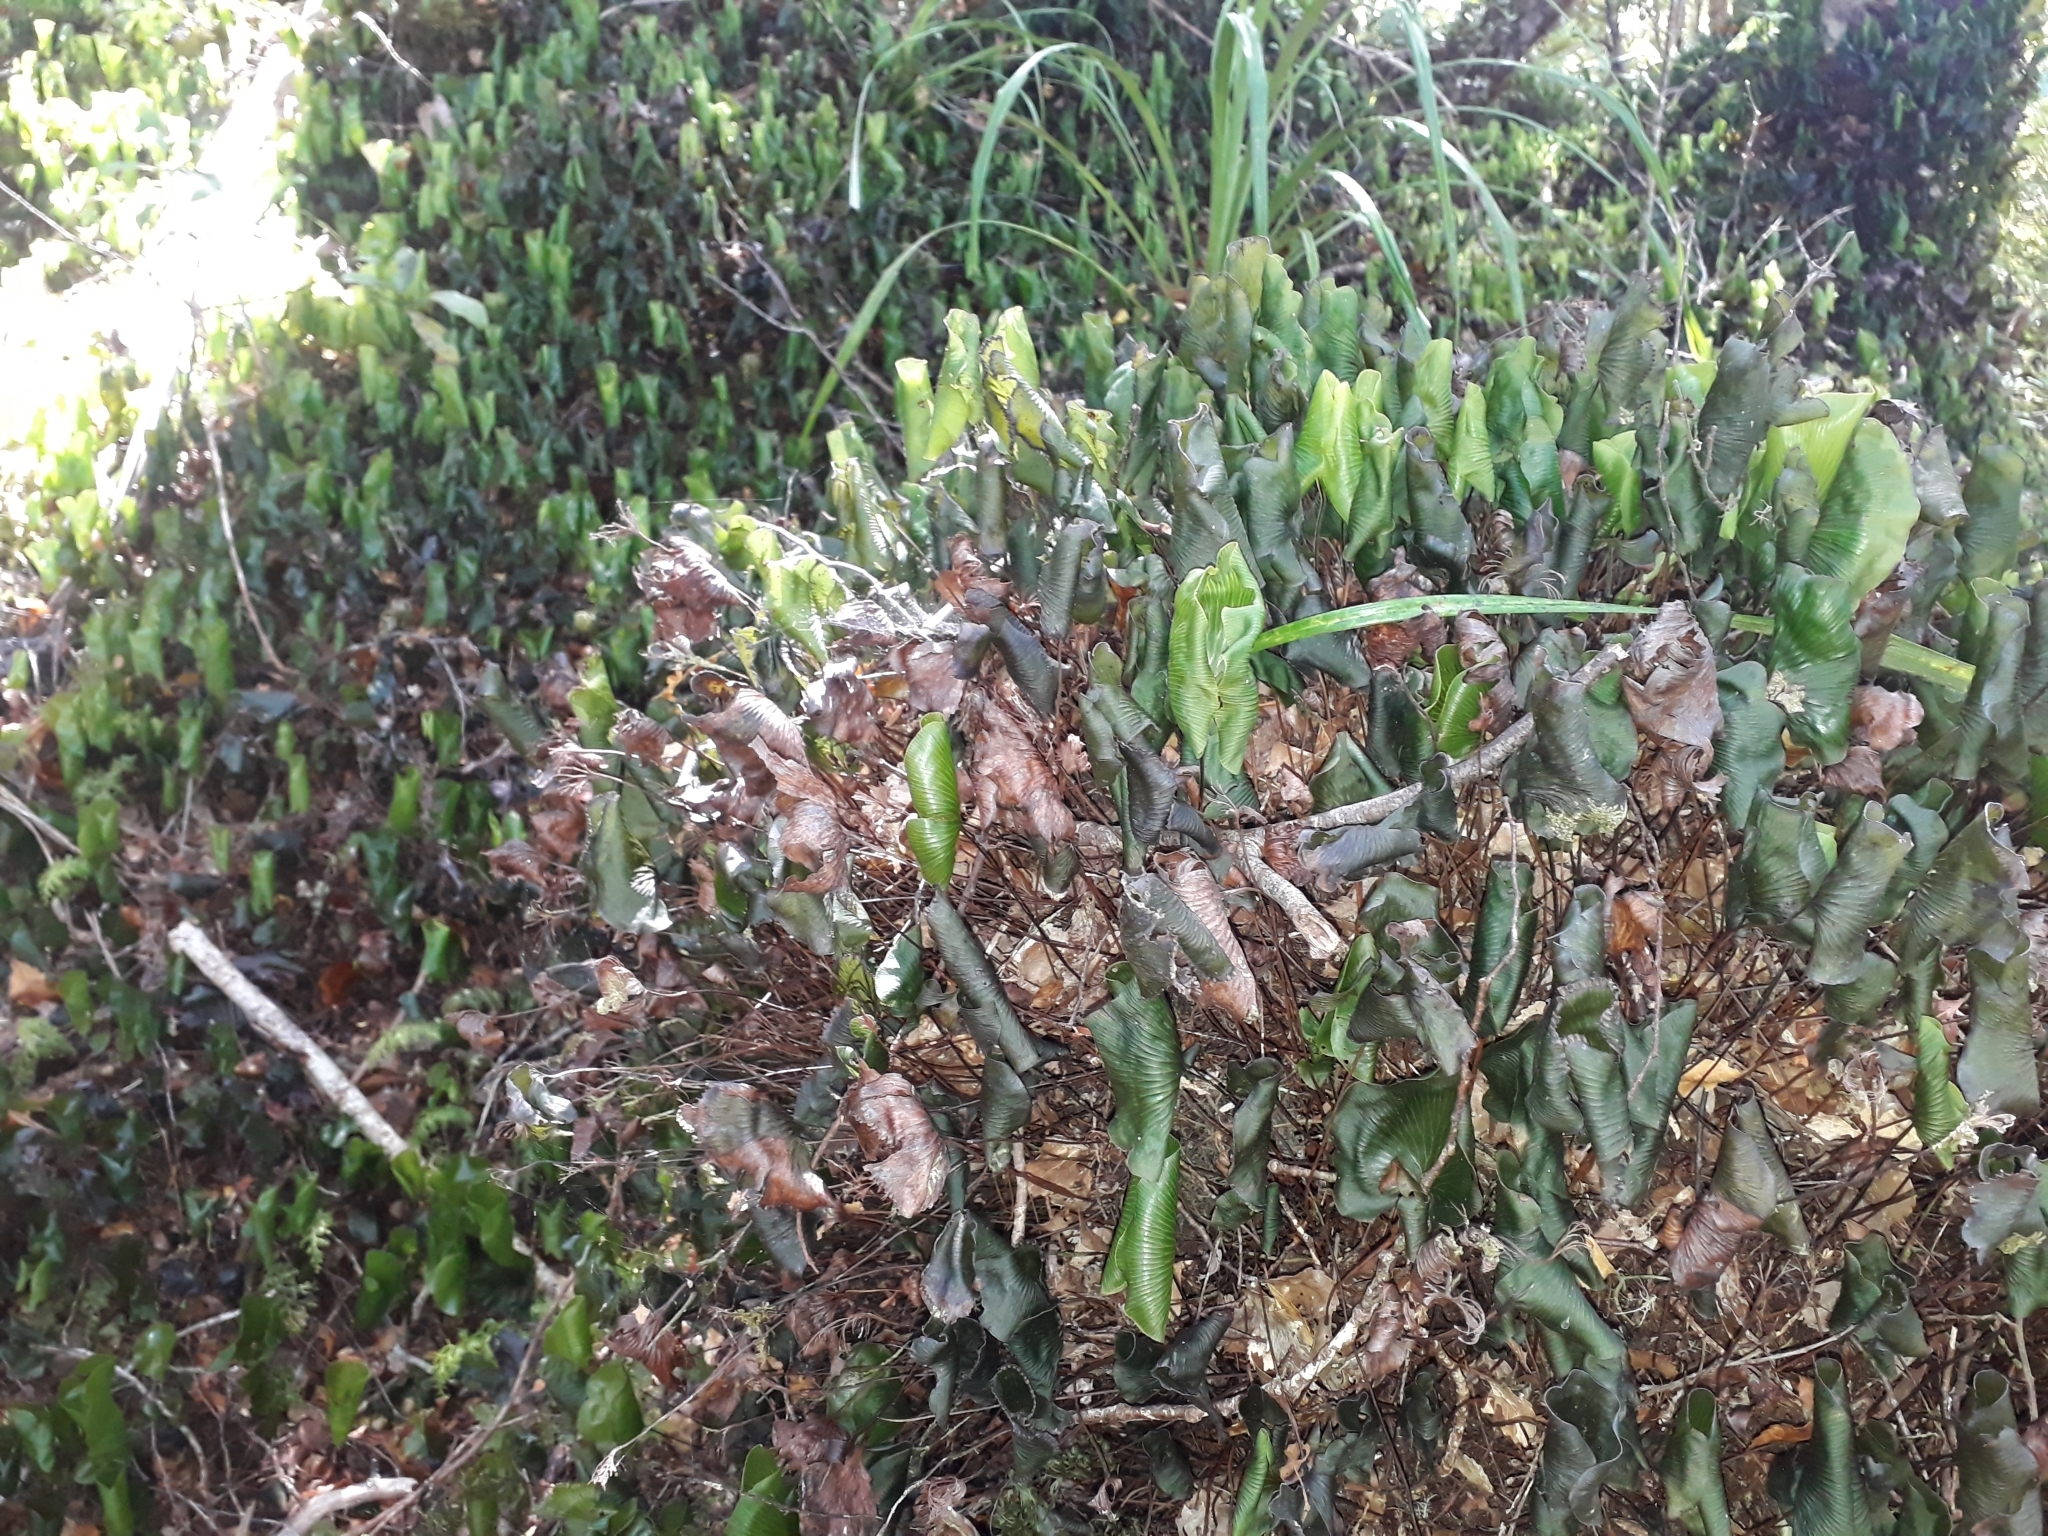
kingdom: Plantae
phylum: Tracheophyta
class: Polypodiopsida
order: Hymenophyllales
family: Hymenophyllaceae
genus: Hymenophyllum
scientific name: Hymenophyllum nephrophyllum
